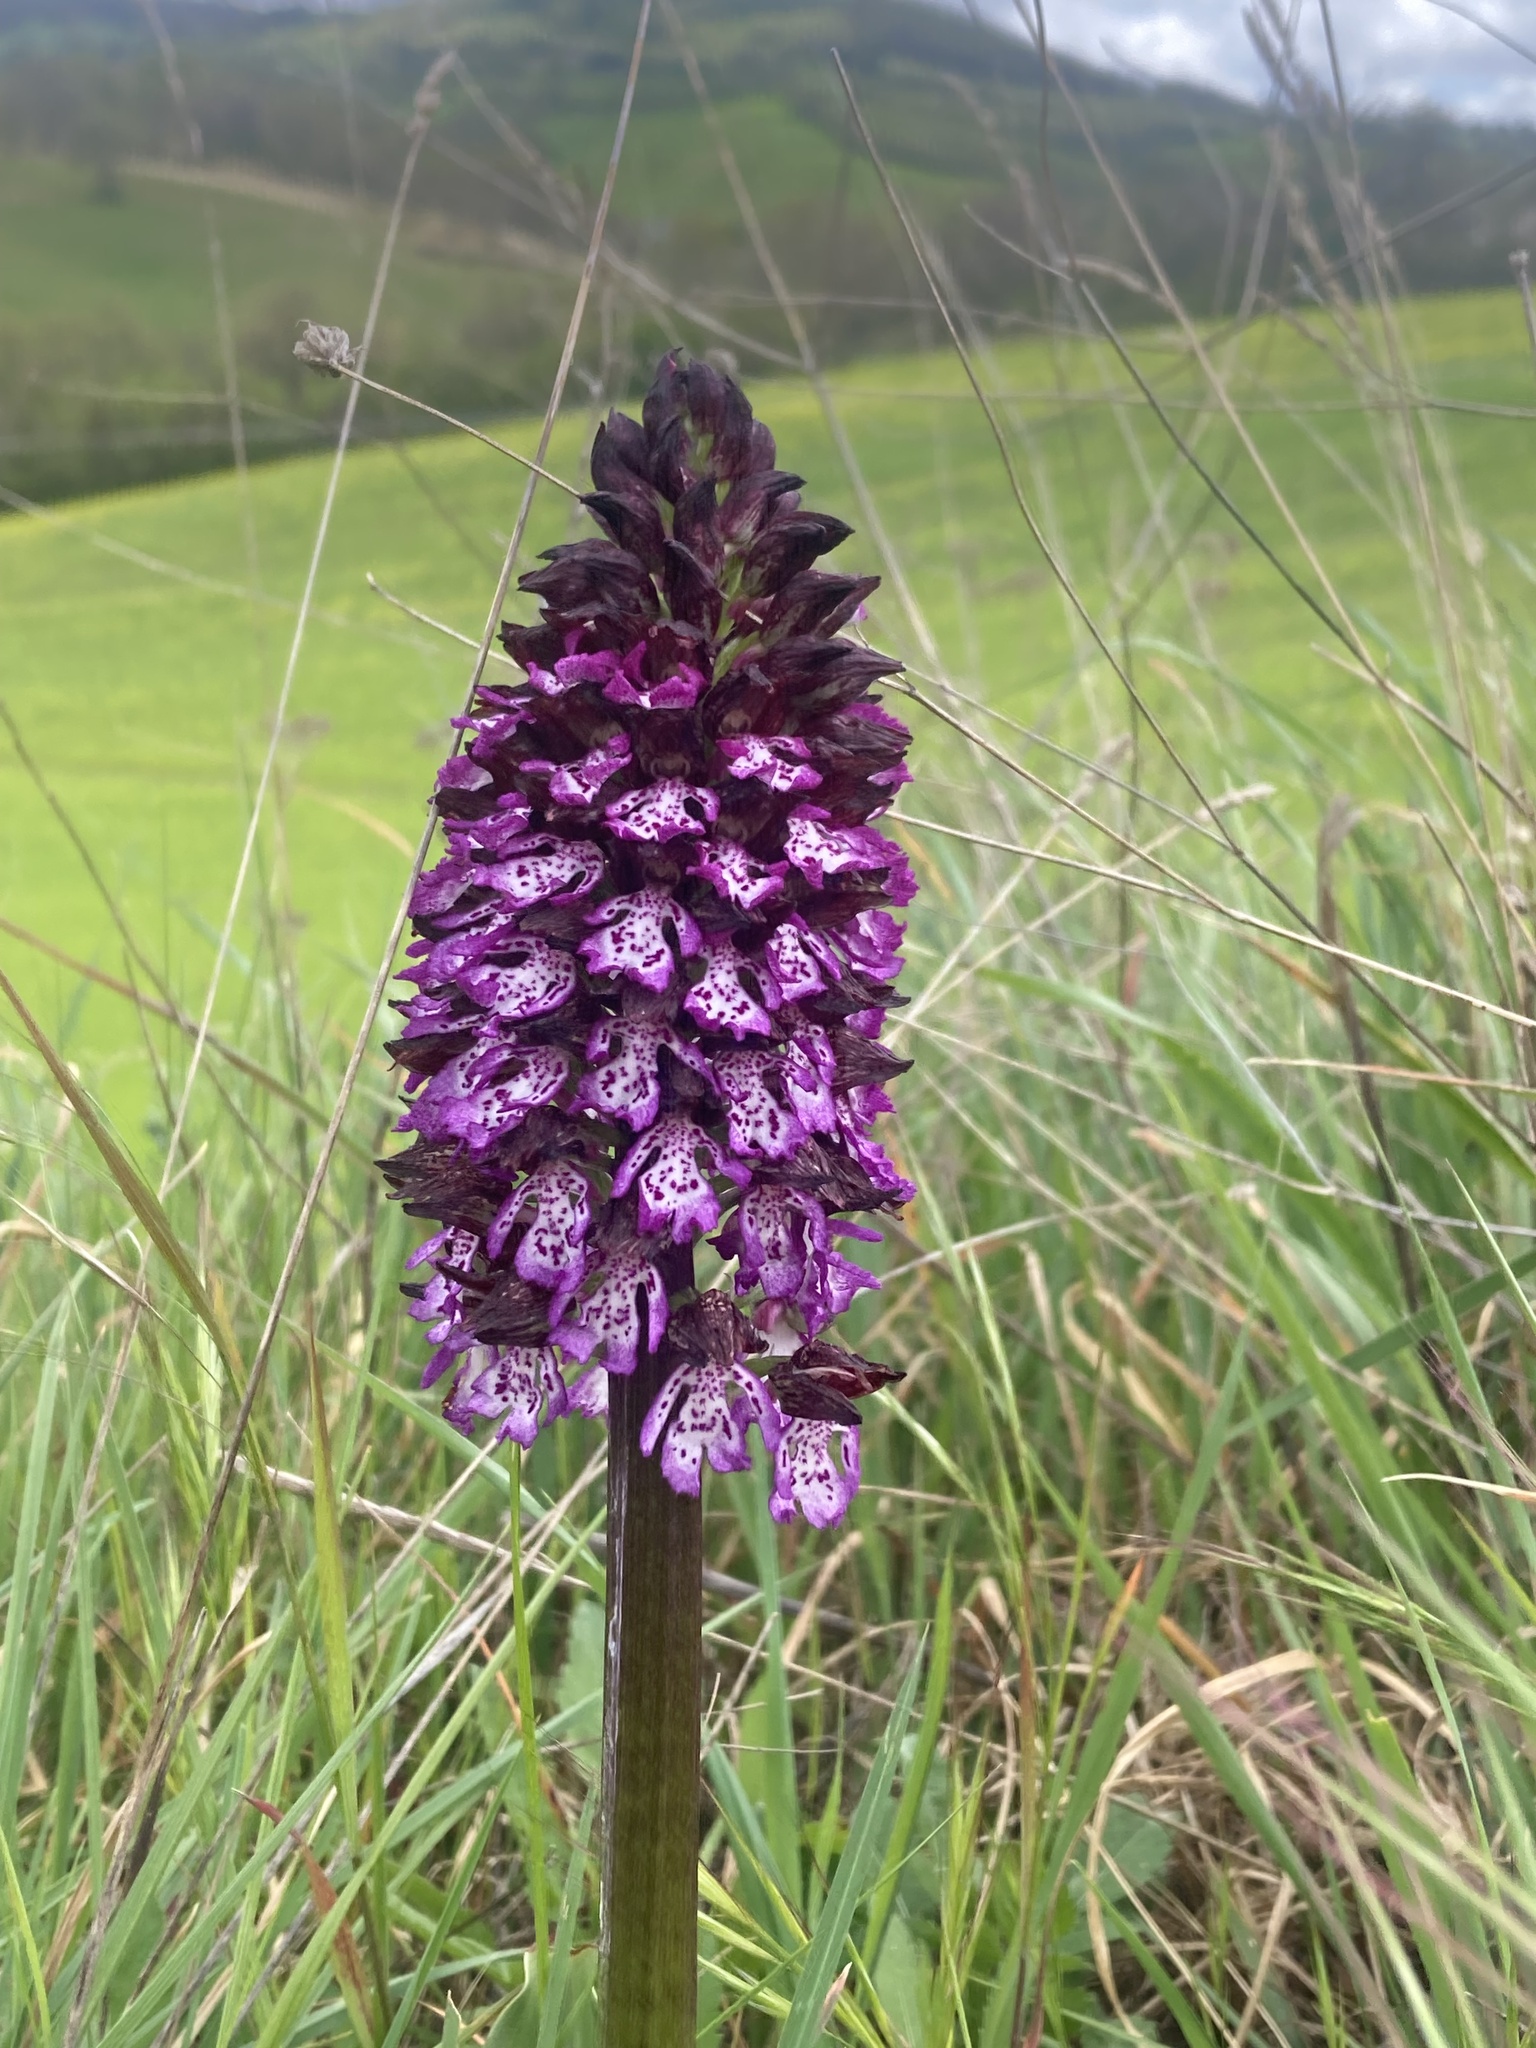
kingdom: Plantae
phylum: Tracheophyta
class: Liliopsida
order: Asparagales
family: Orchidaceae
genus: Orchis
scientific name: Orchis purpurea
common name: Lady orchid
